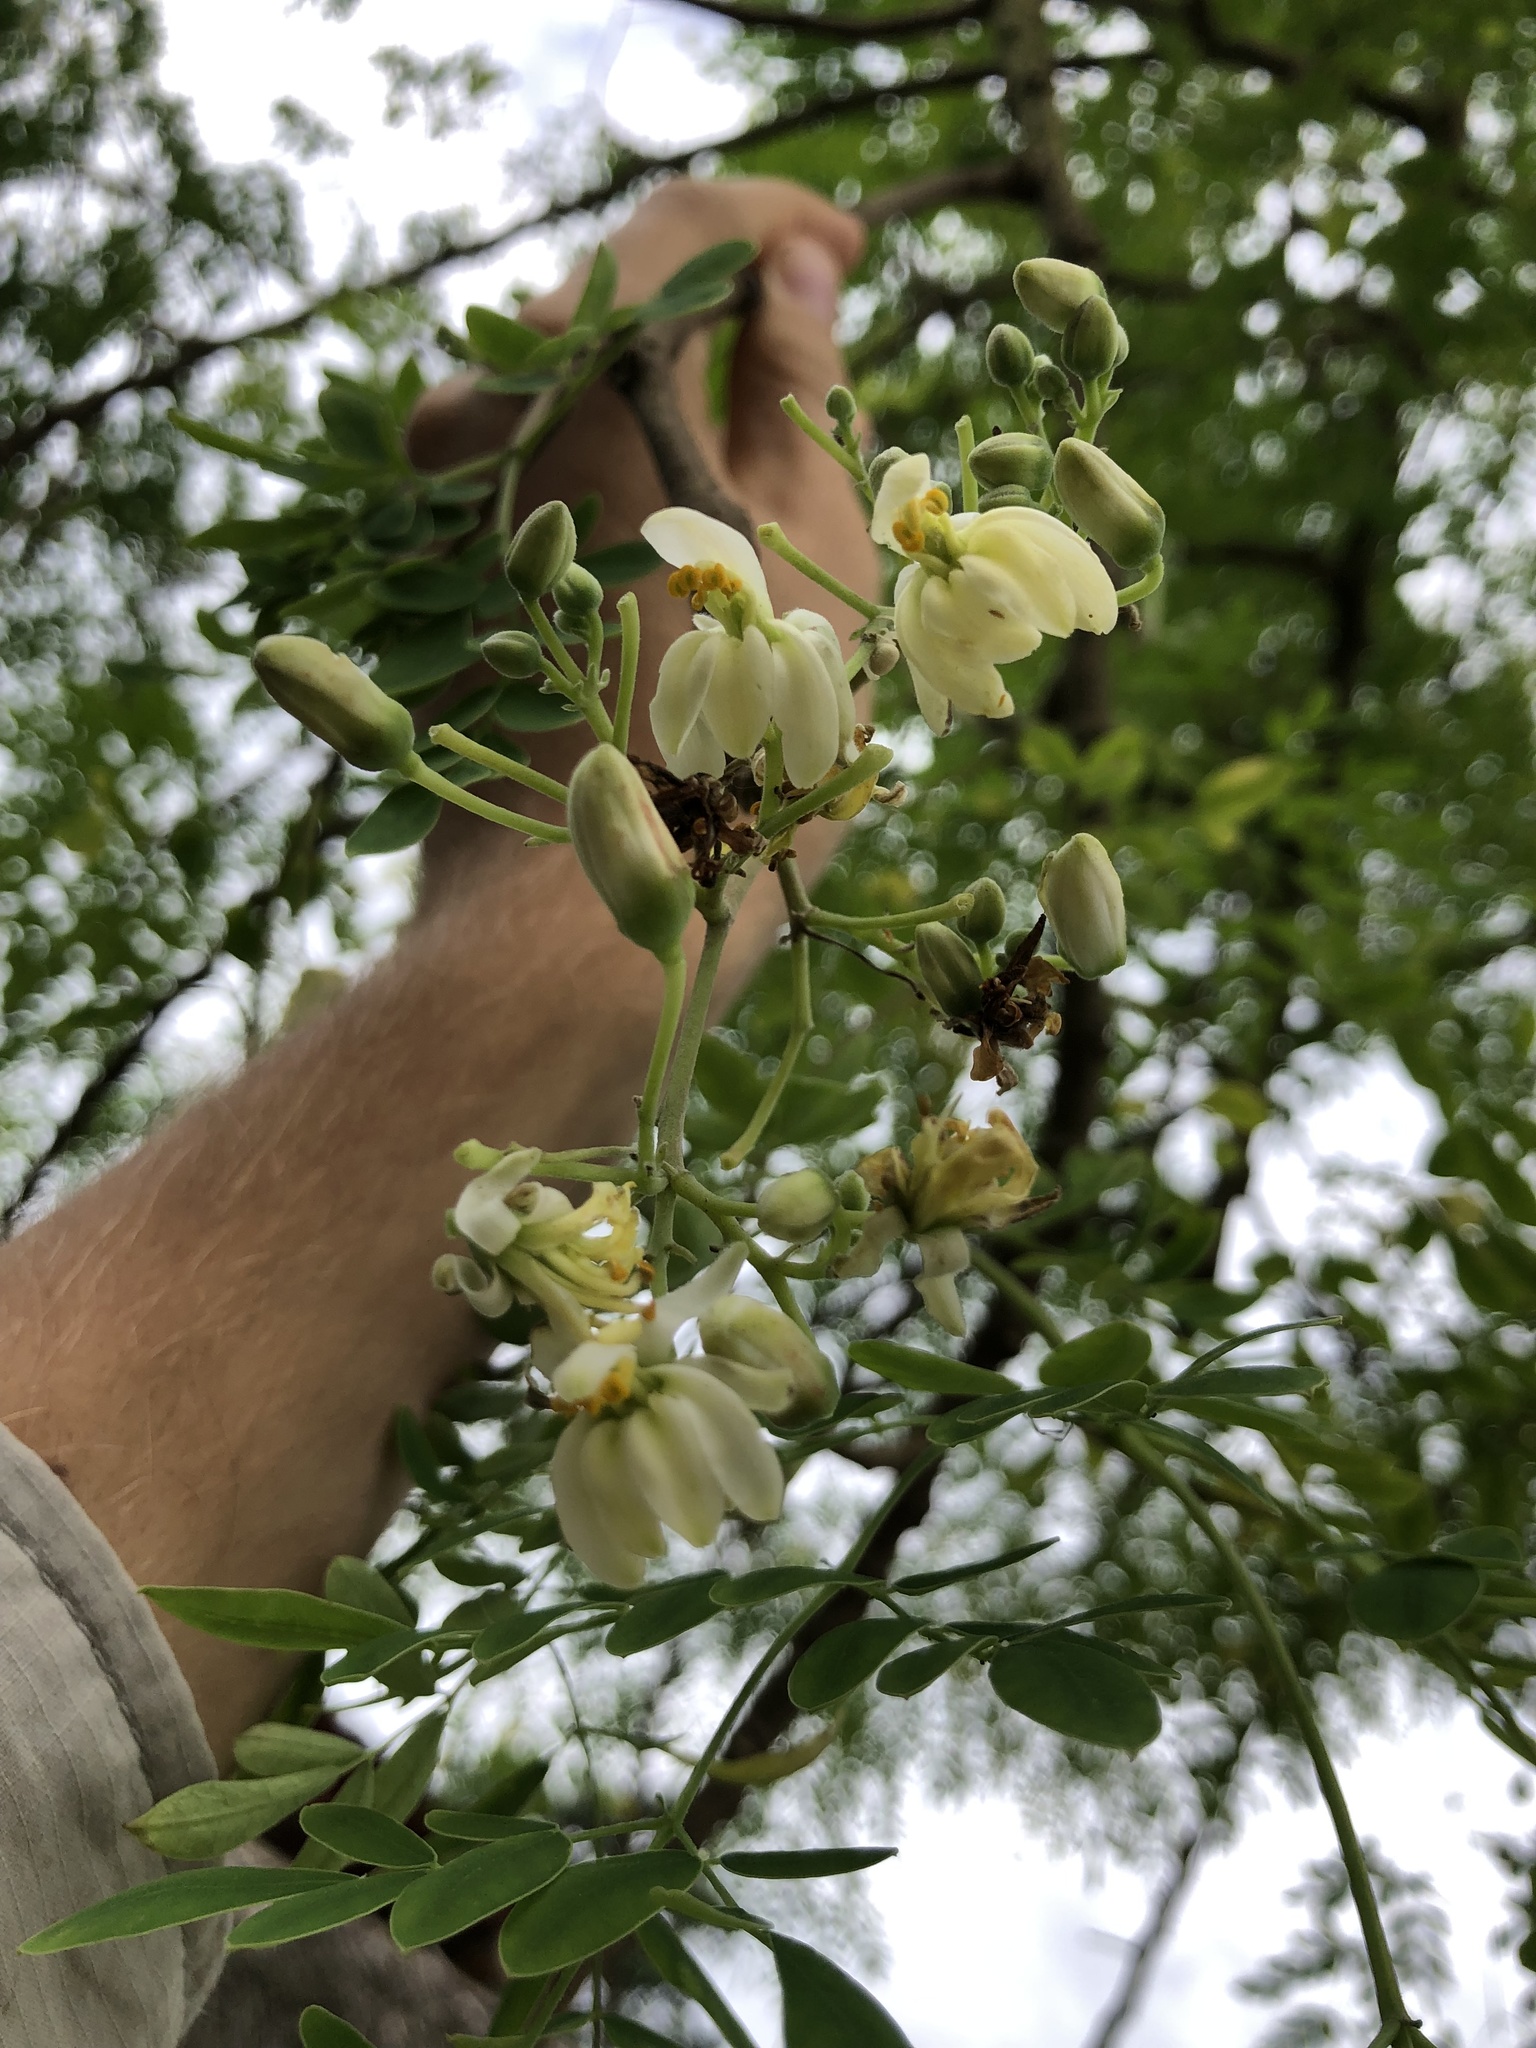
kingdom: Plantae
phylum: Tracheophyta
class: Magnoliopsida
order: Brassicales
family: Moringaceae
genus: Moringa
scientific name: Moringa oleifera
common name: Horseradish-tree
